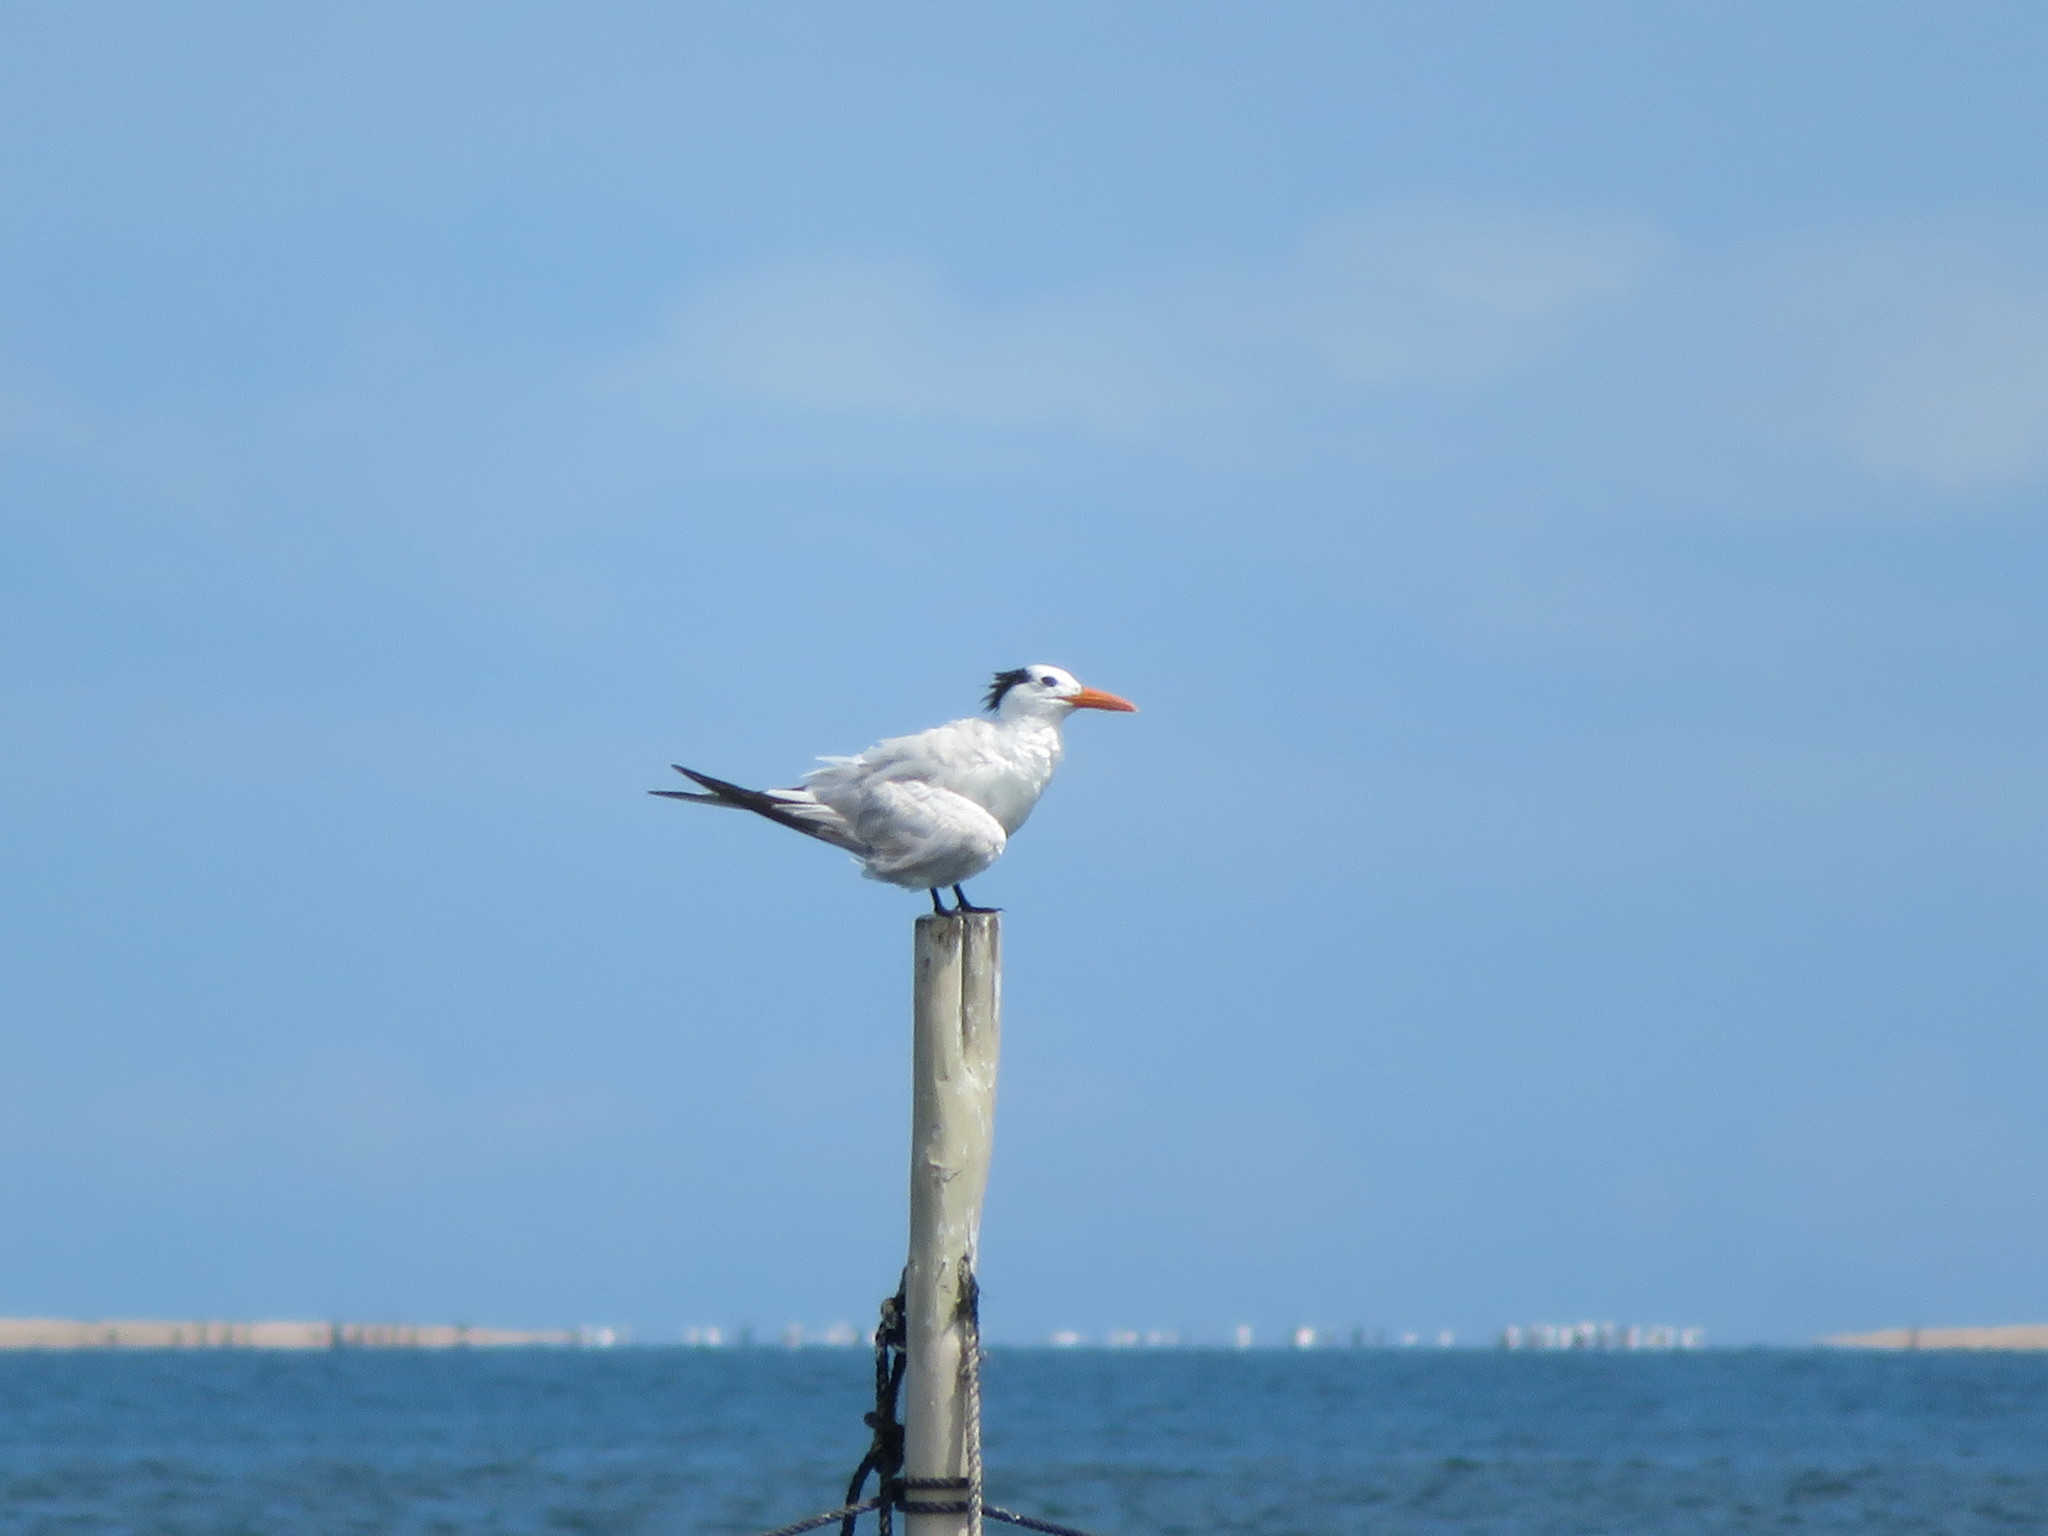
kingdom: Animalia
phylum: Chordata
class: Aves
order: Charadriiformes
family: Laridae
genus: Thalasseus
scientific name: Thalasseus maximus
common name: Royal tern
